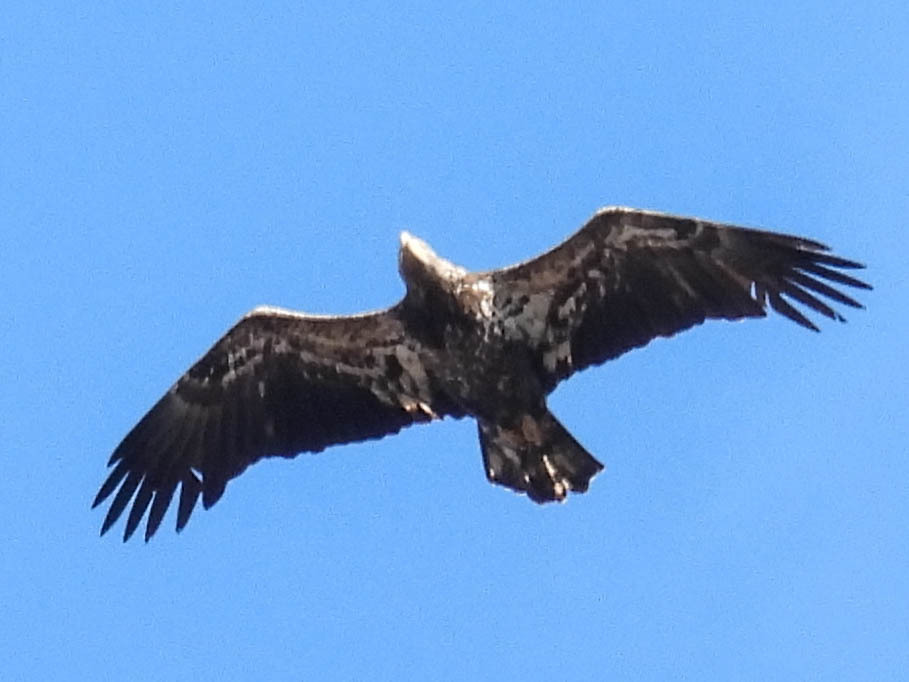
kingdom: Animalia
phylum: Chordata
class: Aves
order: Accipitriformes
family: Accipitridae
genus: Haliaeetus
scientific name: Haliaeetus leucocephalus
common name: Bald eagle
